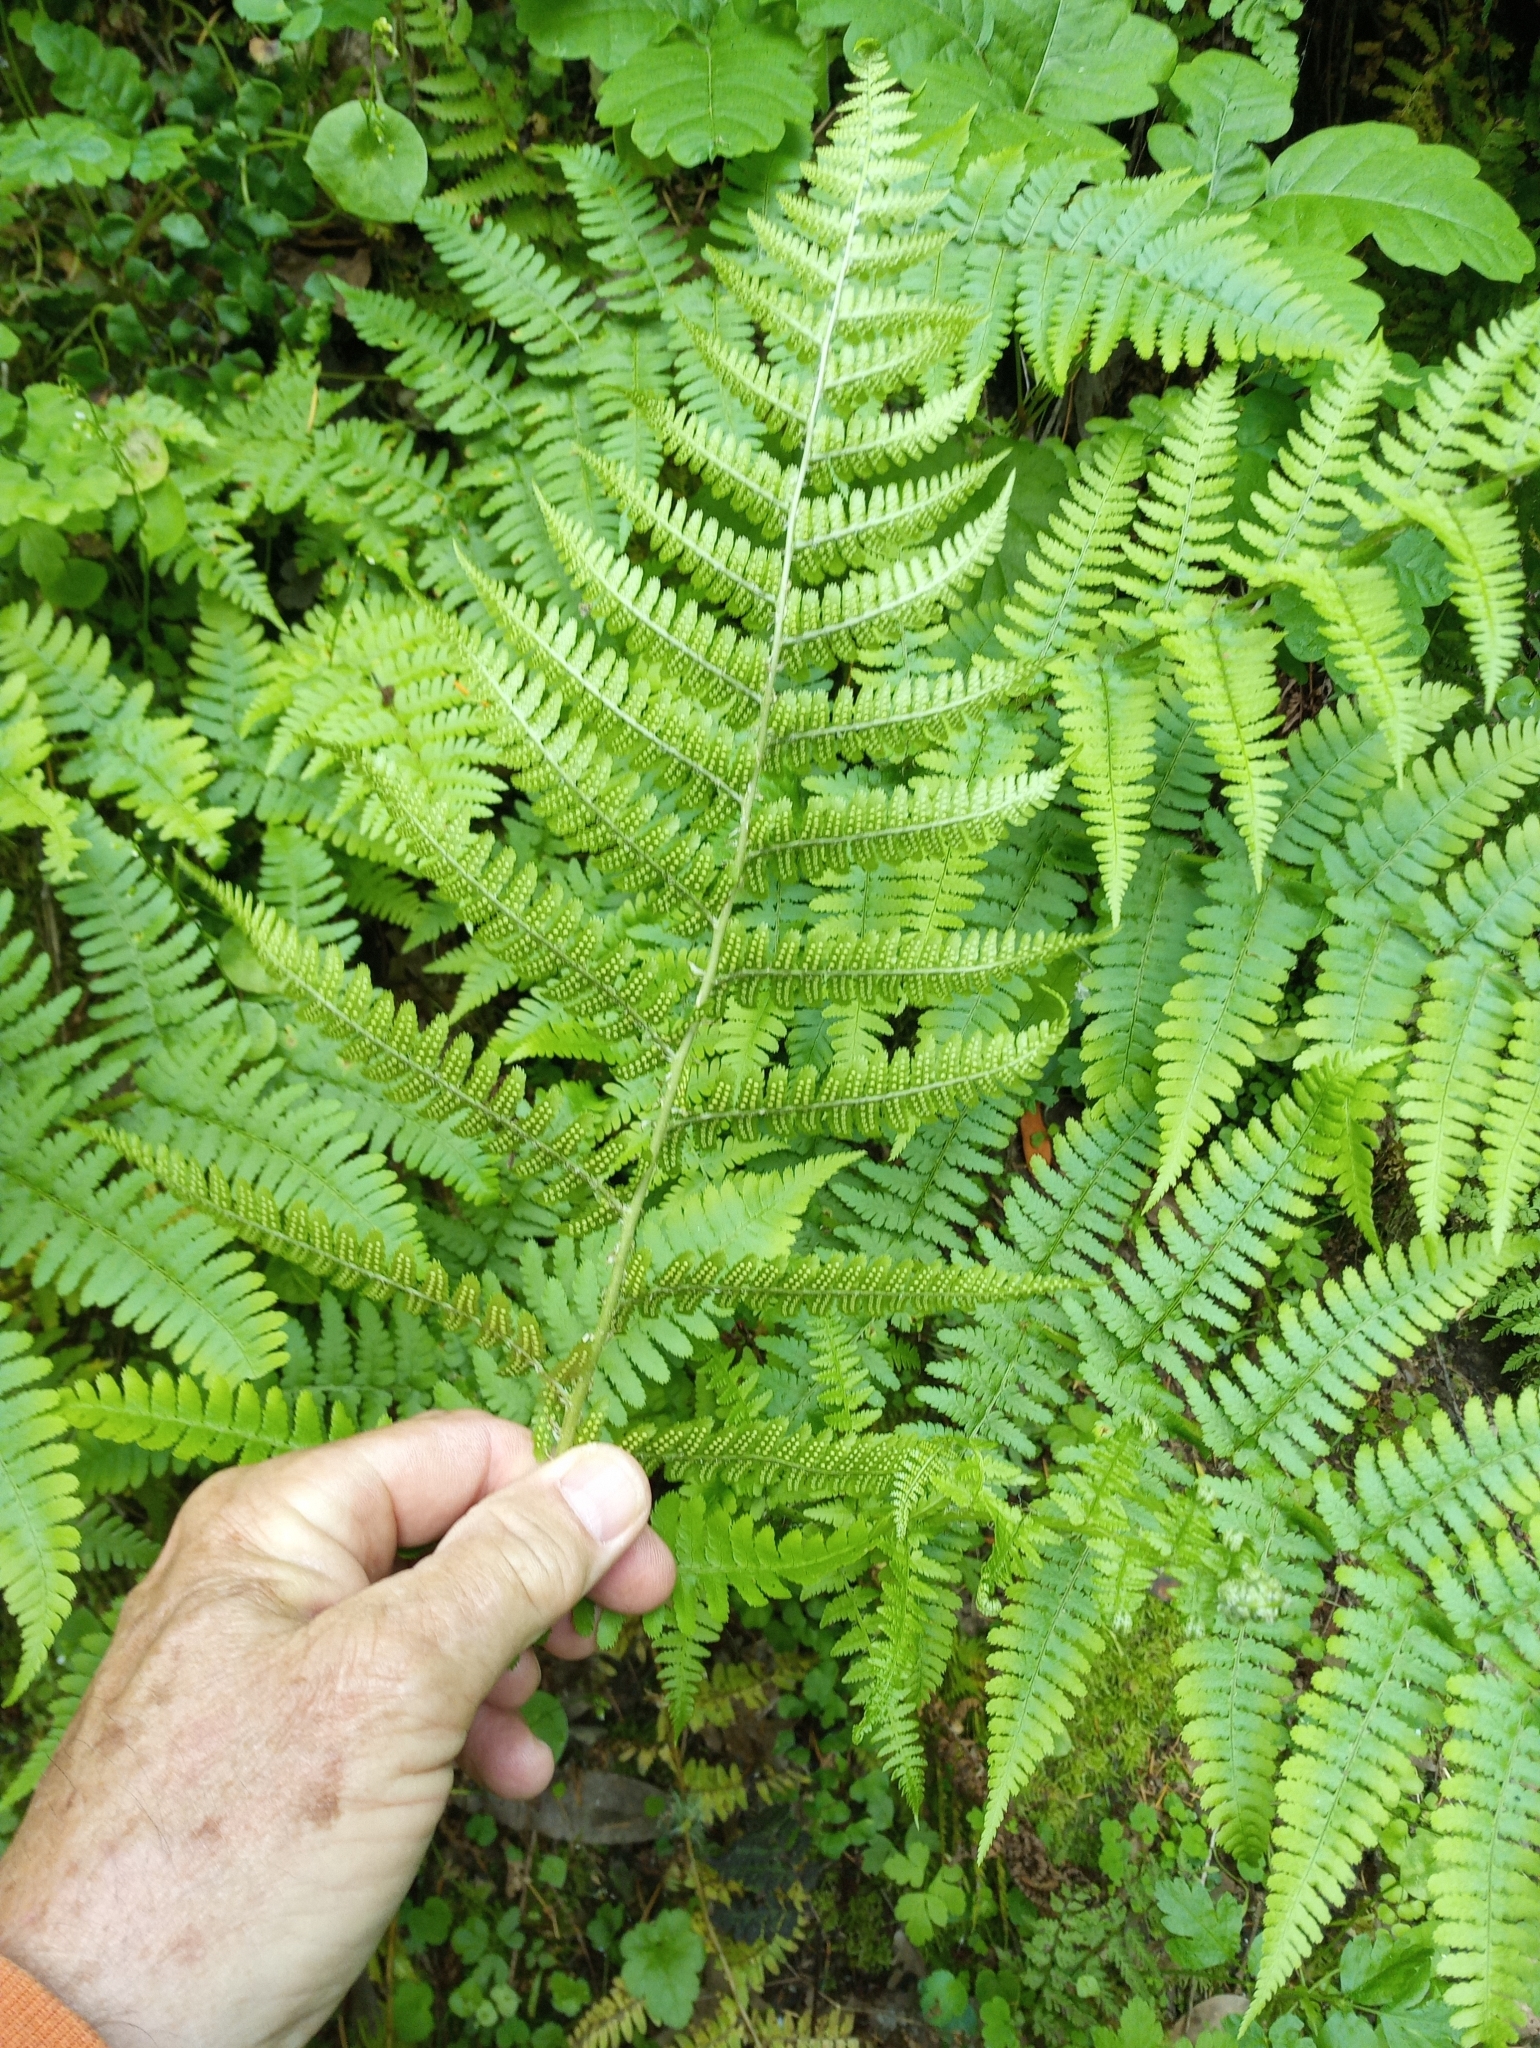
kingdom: Plantae
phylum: Tracheophyta
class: Polypodiopsida
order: Polypodiales
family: Dryopteridaceae
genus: Dryopteris
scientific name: Dryopteris arguta
